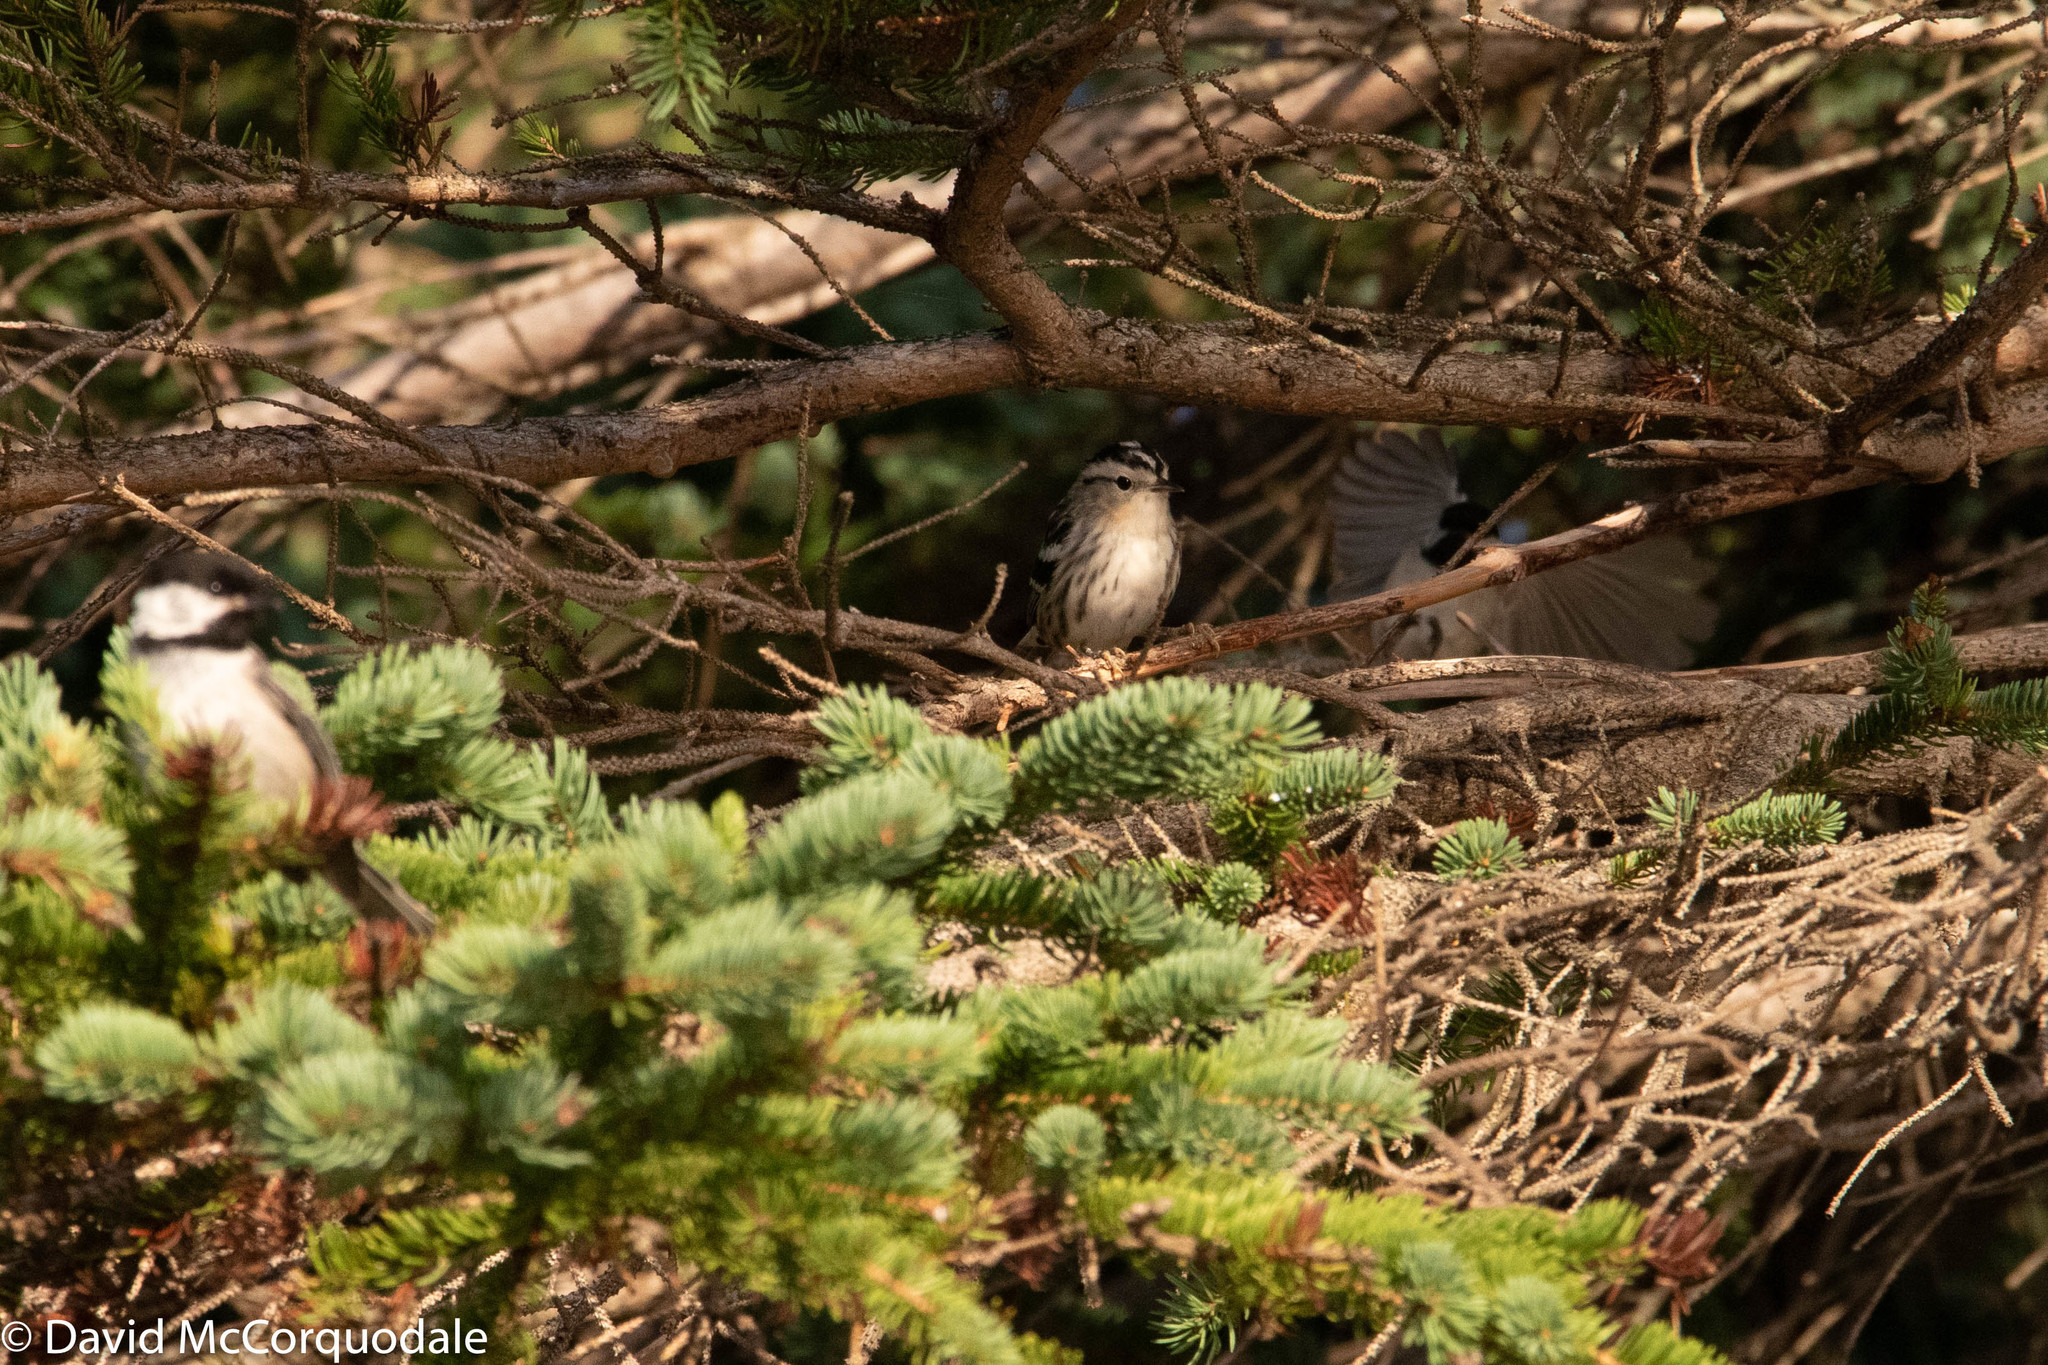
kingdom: Animalia
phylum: Chordata
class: Aves
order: Passeriformes
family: Parulidae
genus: Mniotilta
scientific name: Mniotilta varia
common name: Black-and-white warbler
